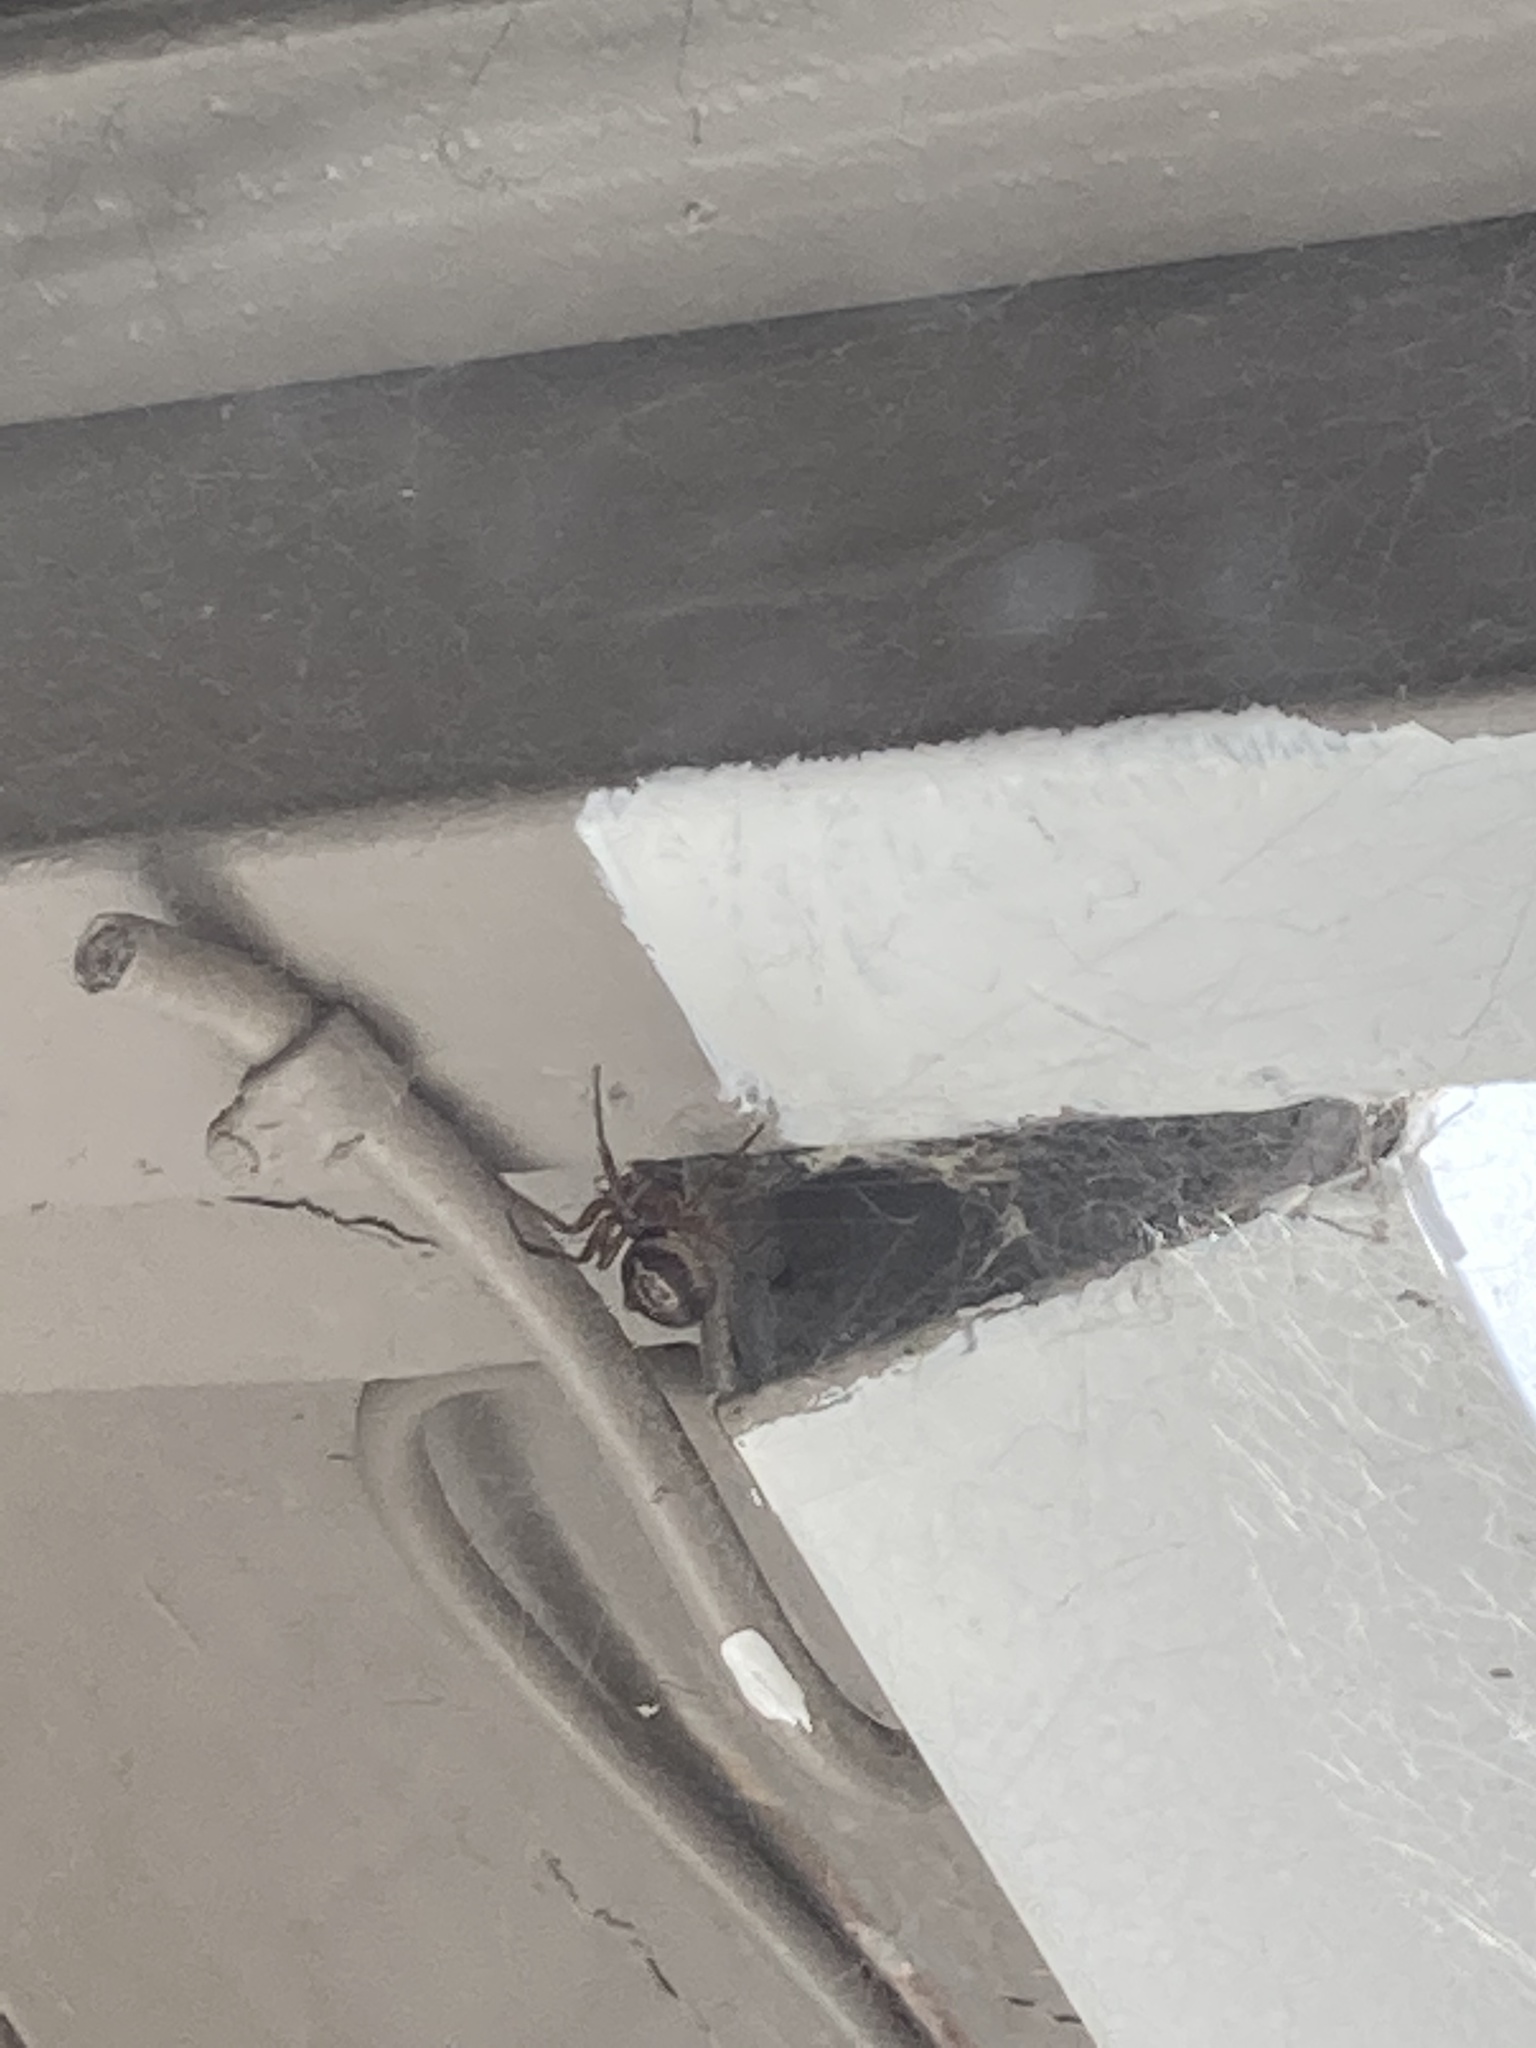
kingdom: Animalia
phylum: Arthropoda
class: Arachnida
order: Araneae
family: Theridiidae
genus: Steatoda
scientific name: Steatoda nobilis
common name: Cobweb weaver
